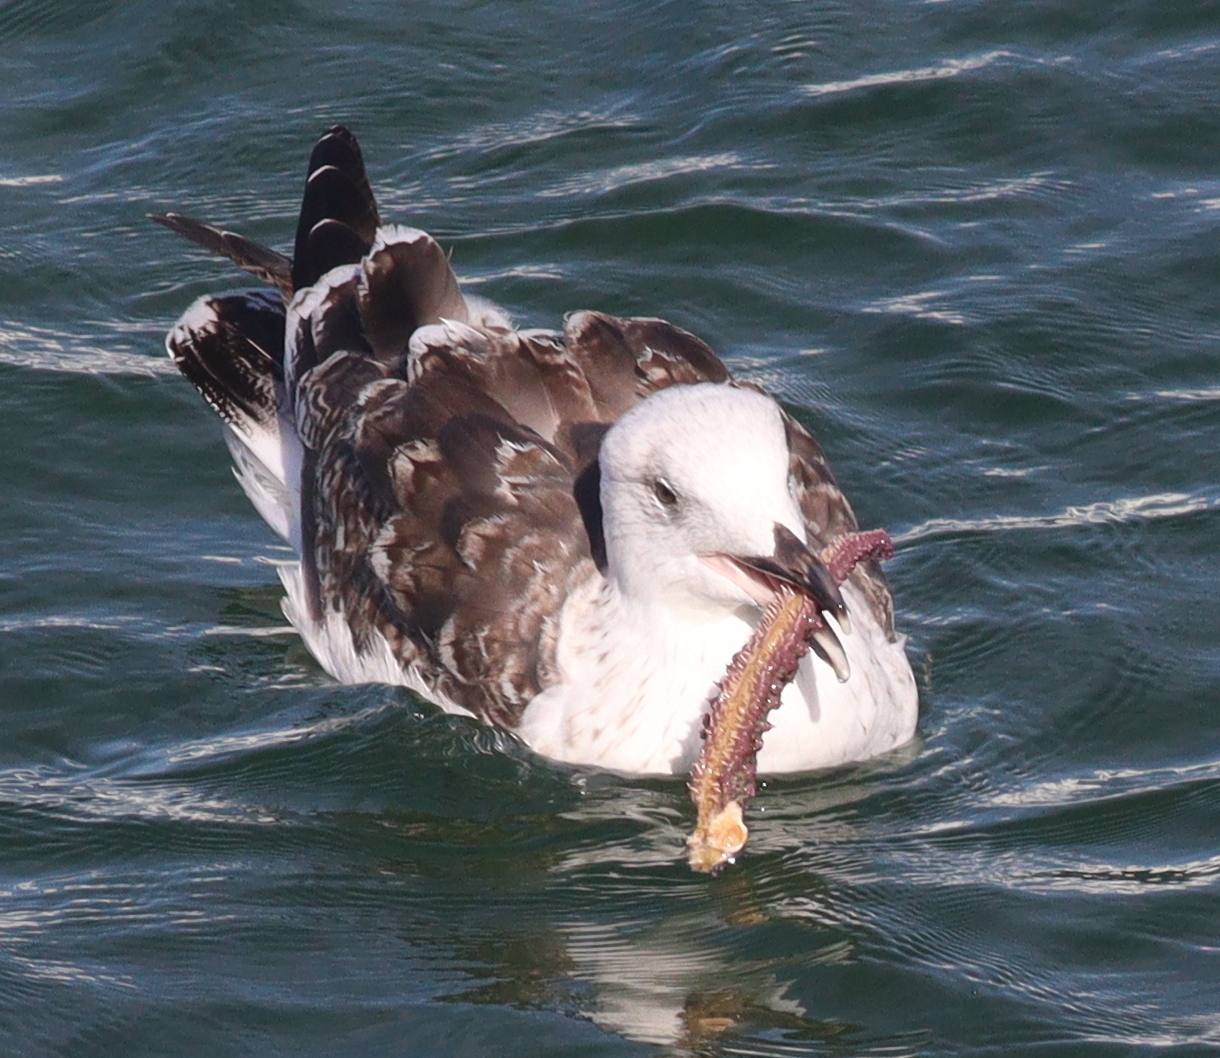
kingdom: Animalia
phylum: Chordata
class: Aves
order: Charadriiformes
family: Laridae
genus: Larus
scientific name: Larus marinus
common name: Great black-backed gull
